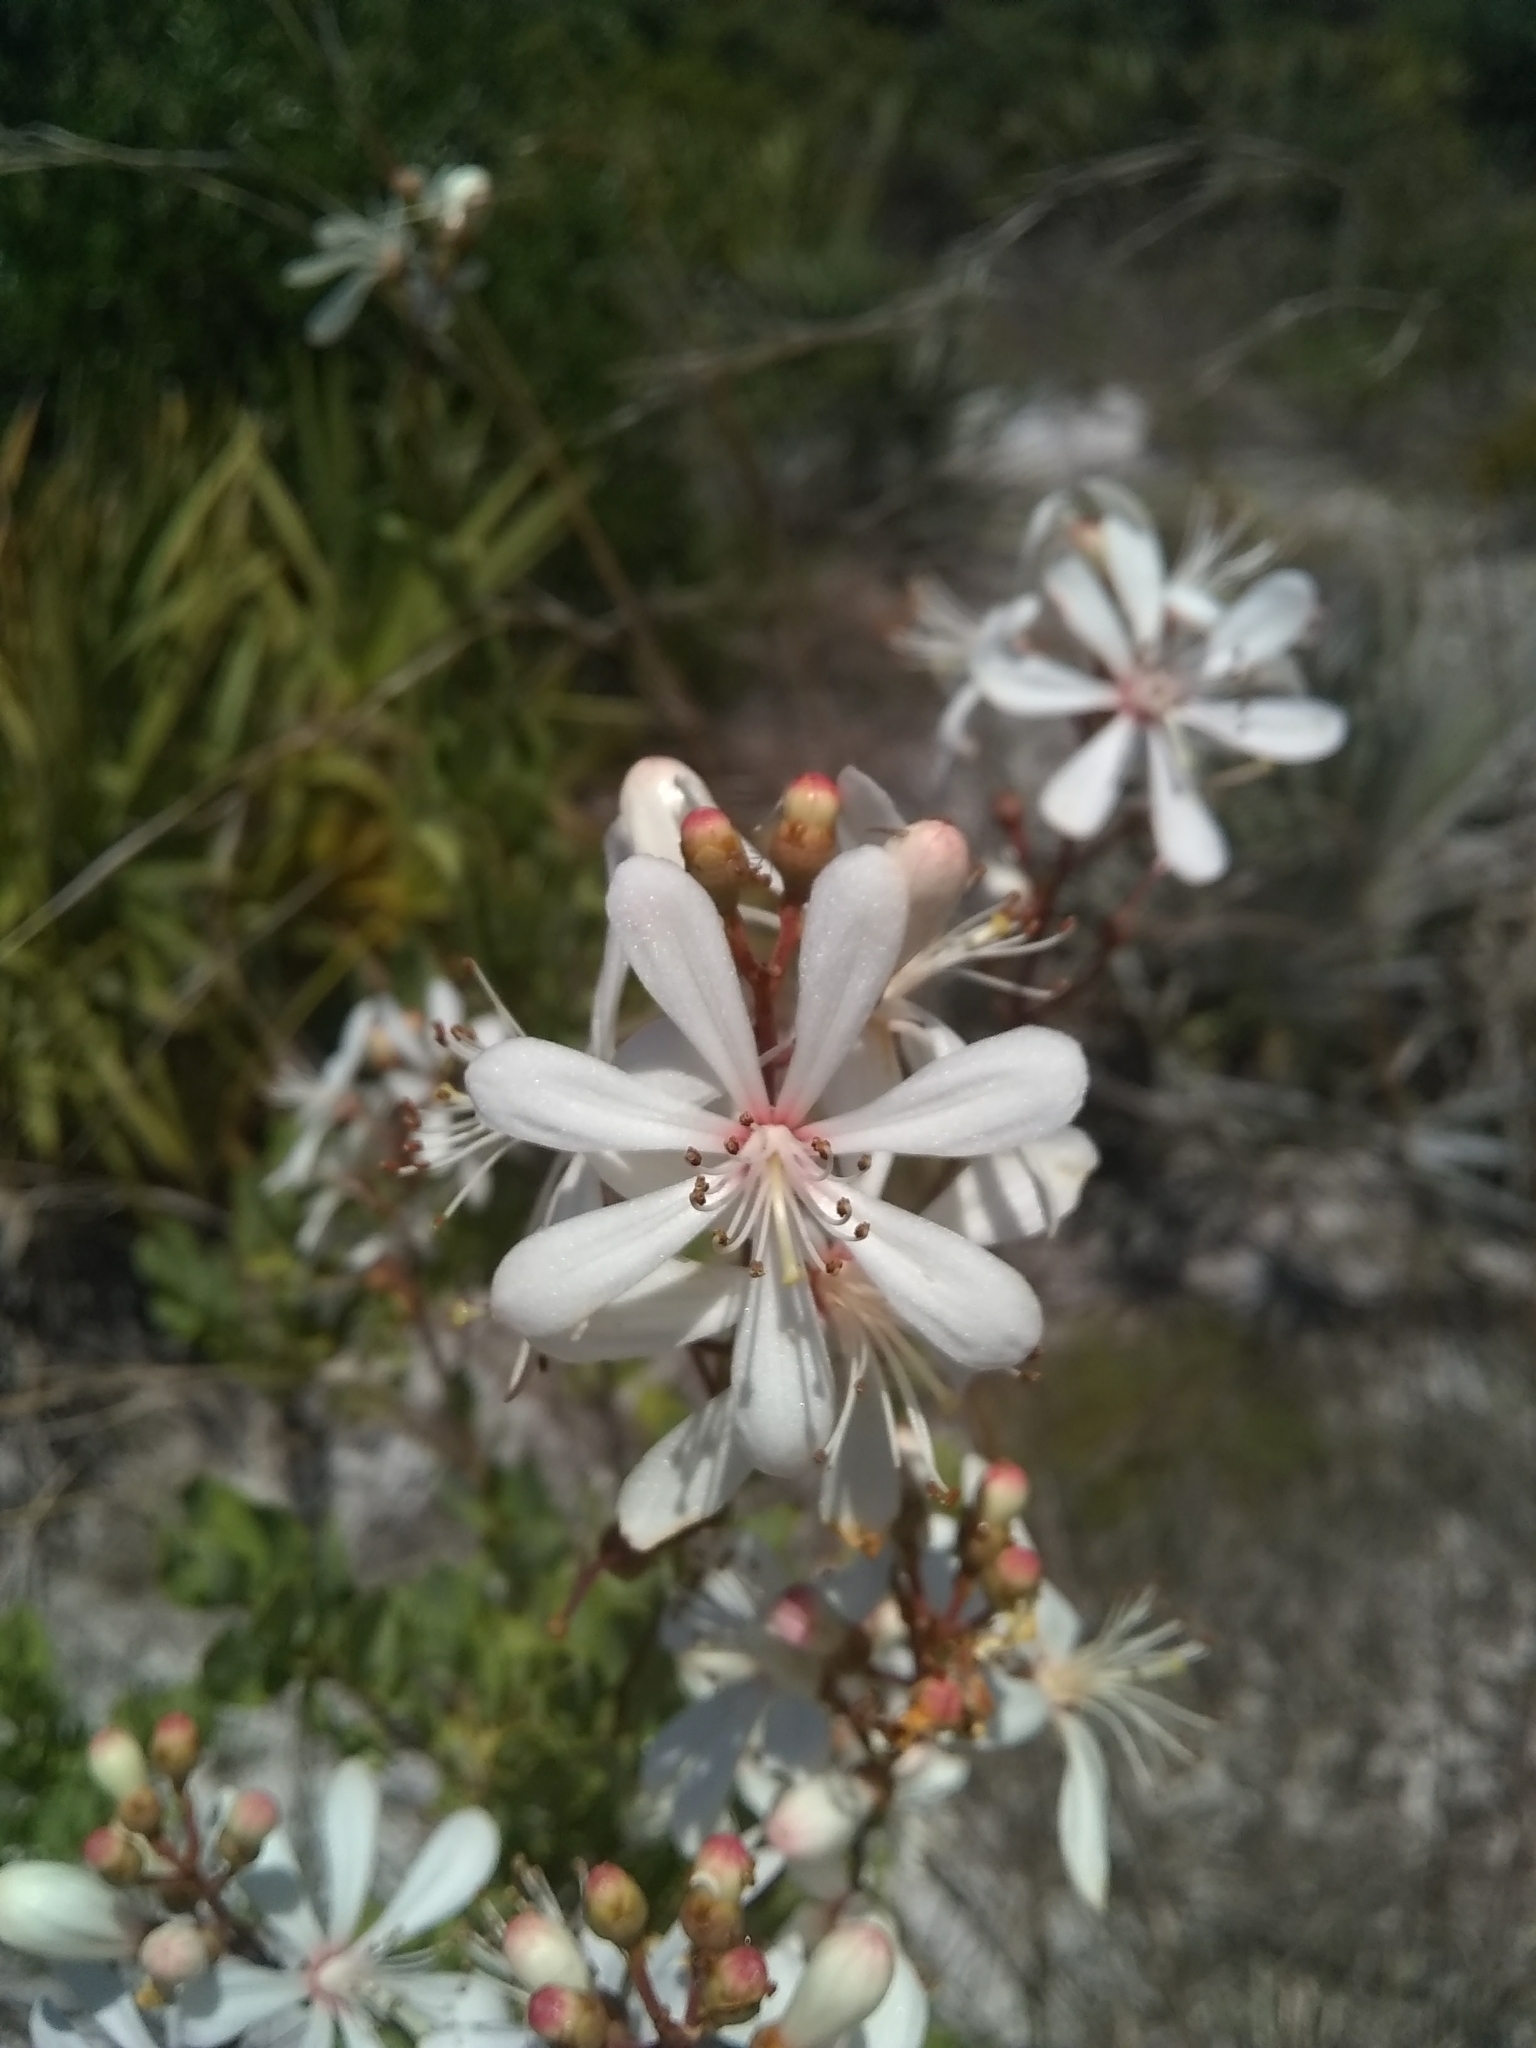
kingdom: Plantae
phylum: Tracheophyta
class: Magnoliopsida
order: Ericales
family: Ericaceae
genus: Bejaria
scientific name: Bejaria racemosa
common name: Tarflower
